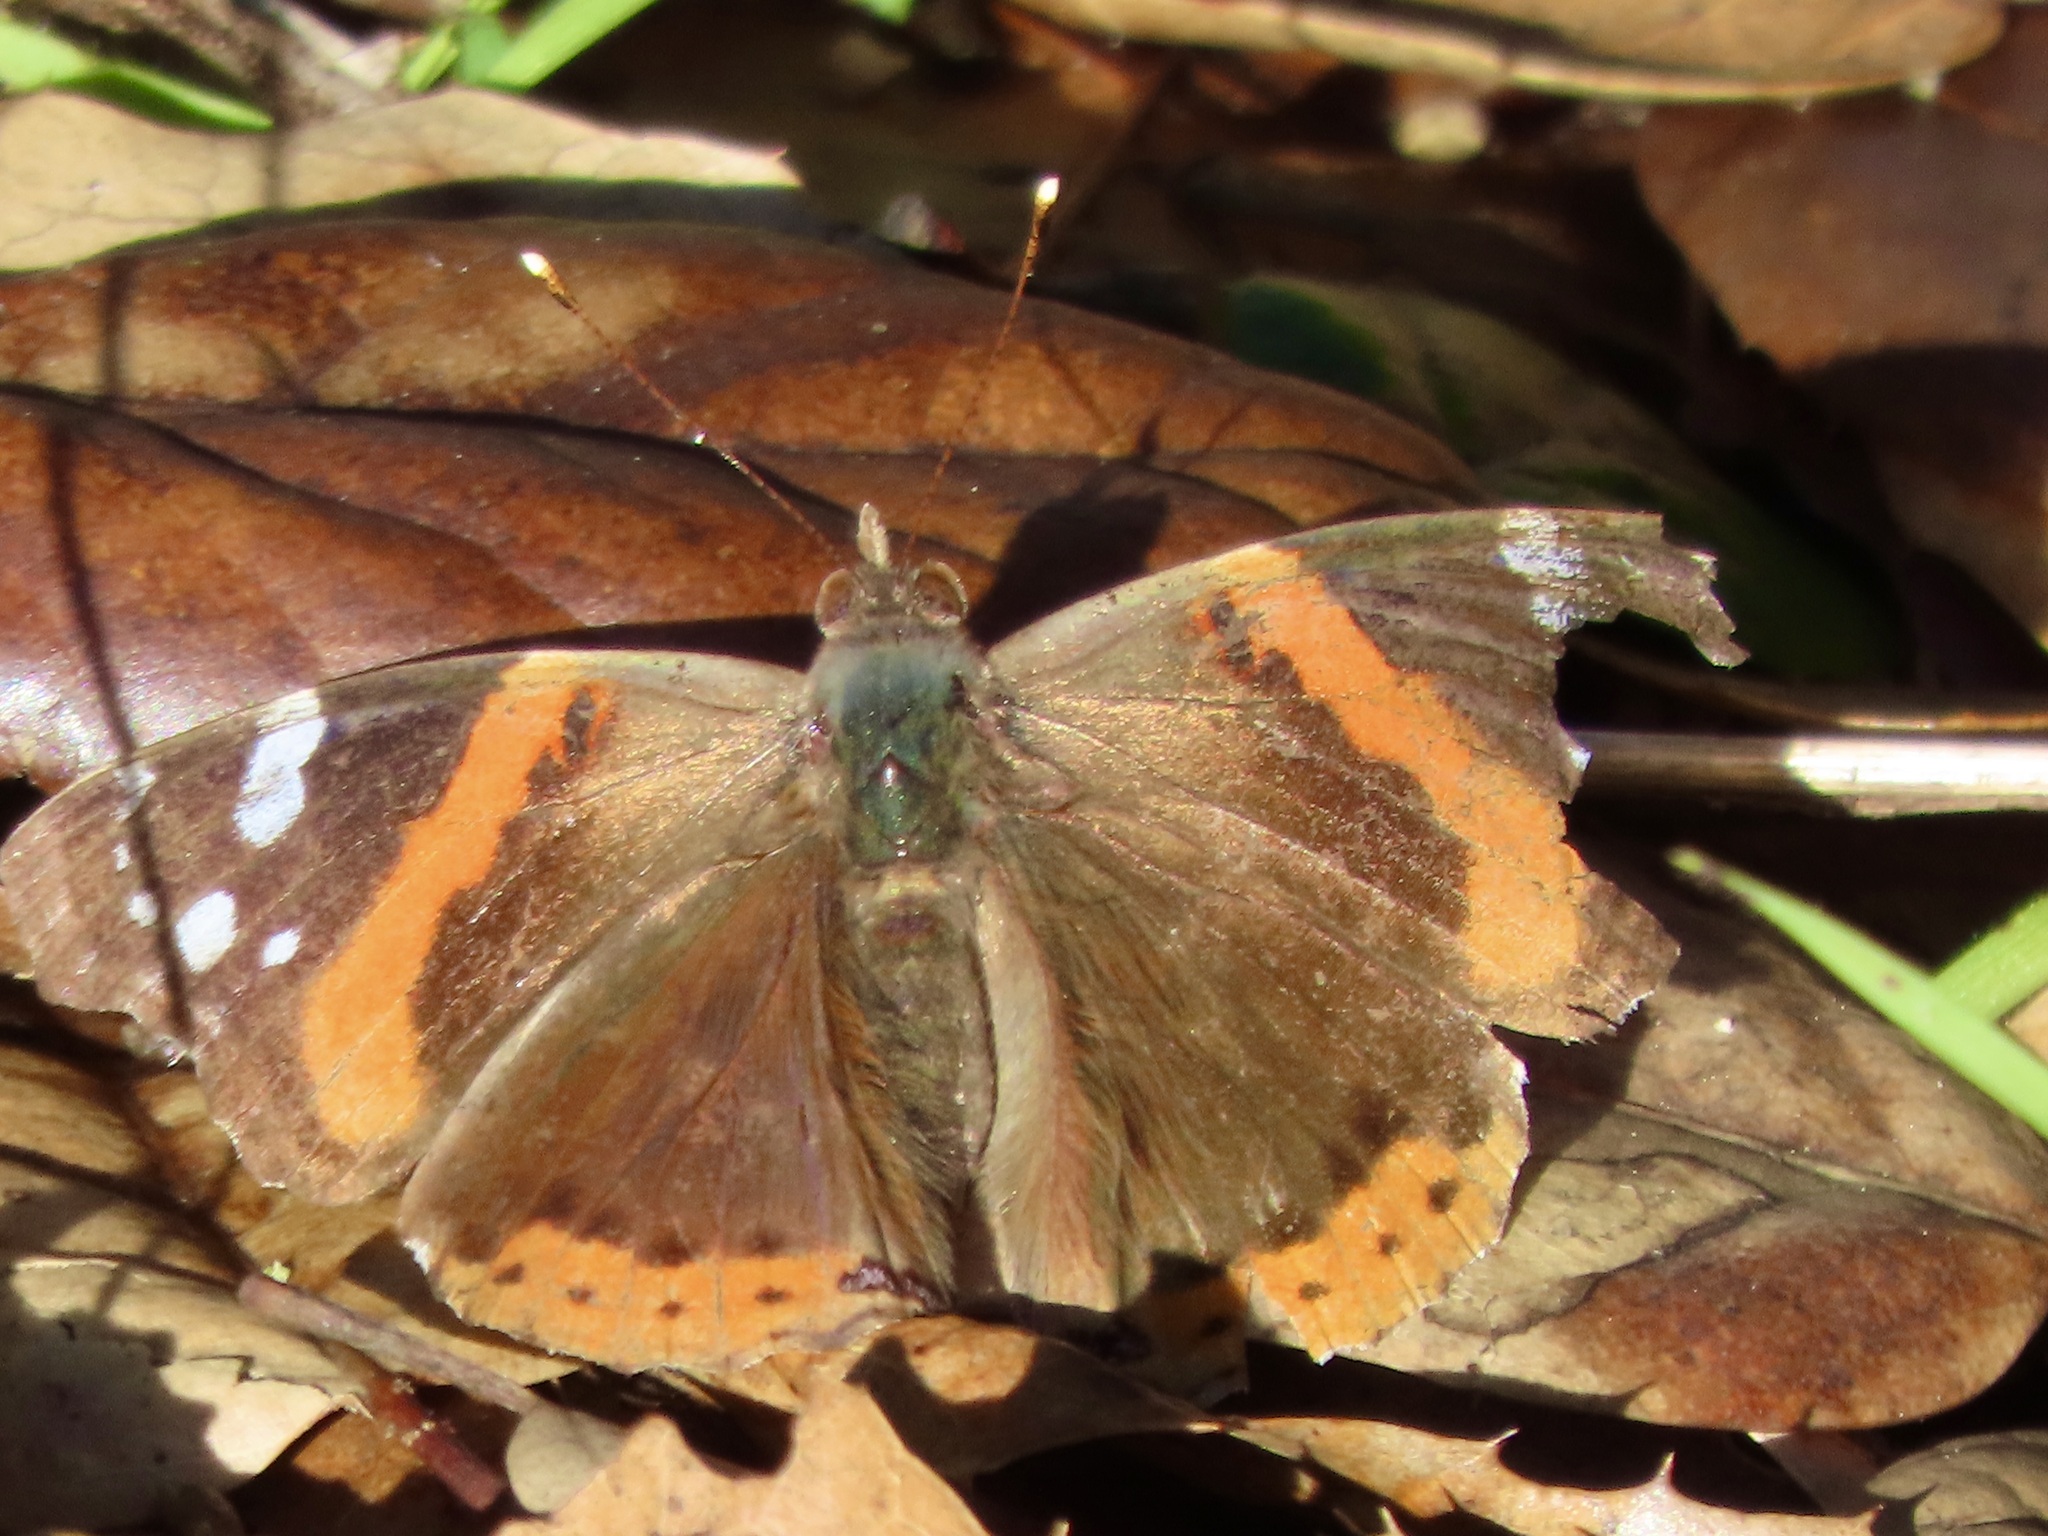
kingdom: Animalia
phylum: Arthropoda
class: Insecta
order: Lepidoptera
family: Nymphalidae
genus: Vanessa
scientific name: Vanessa atalanta
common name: Red admiral
